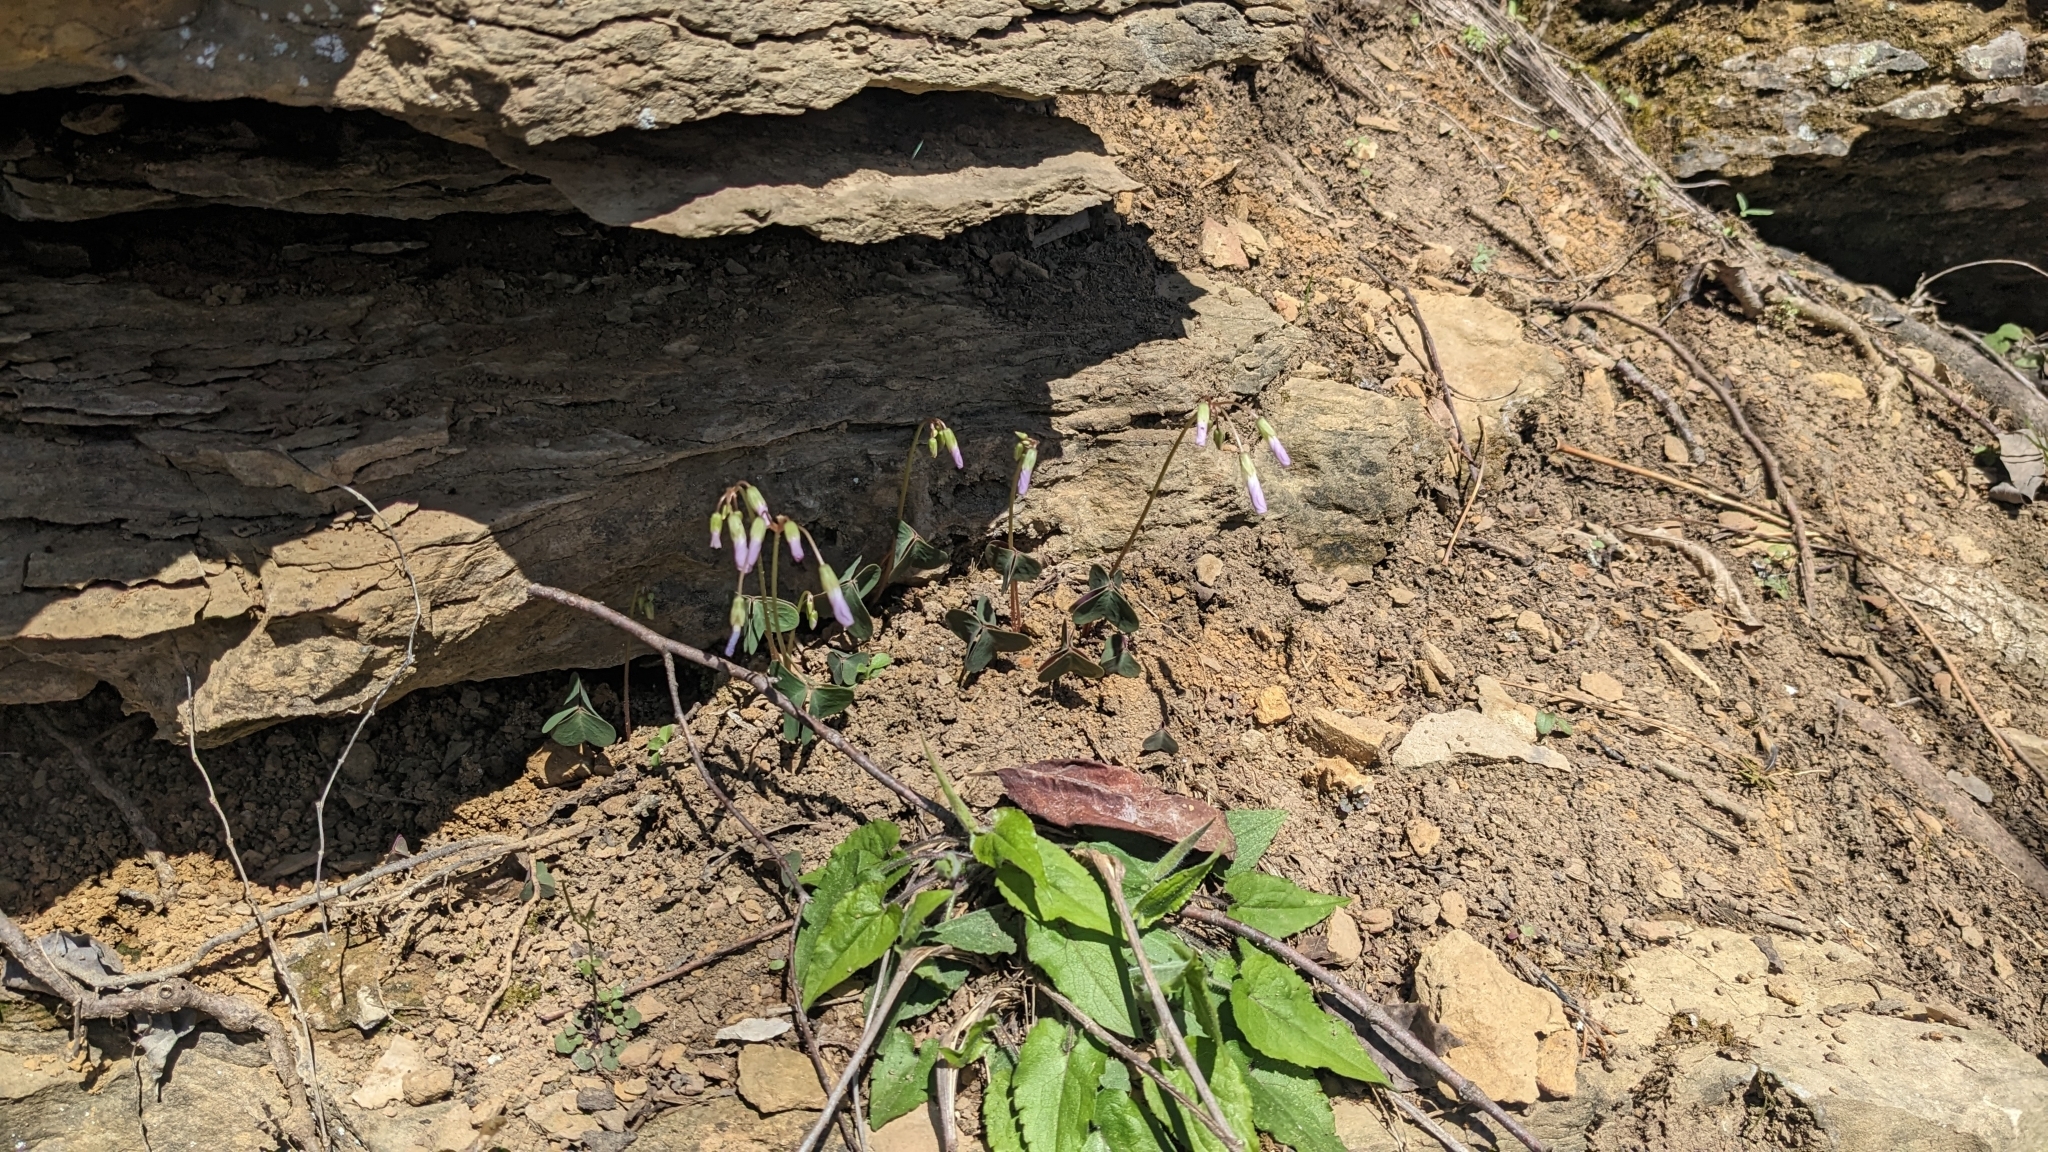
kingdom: Plantae
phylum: Tracheophyta
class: Magnoliopsida
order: Oxalidales
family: Oxalidaceae
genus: Oxalis
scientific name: Oxalis violacea
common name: Violet wood-sorrel
